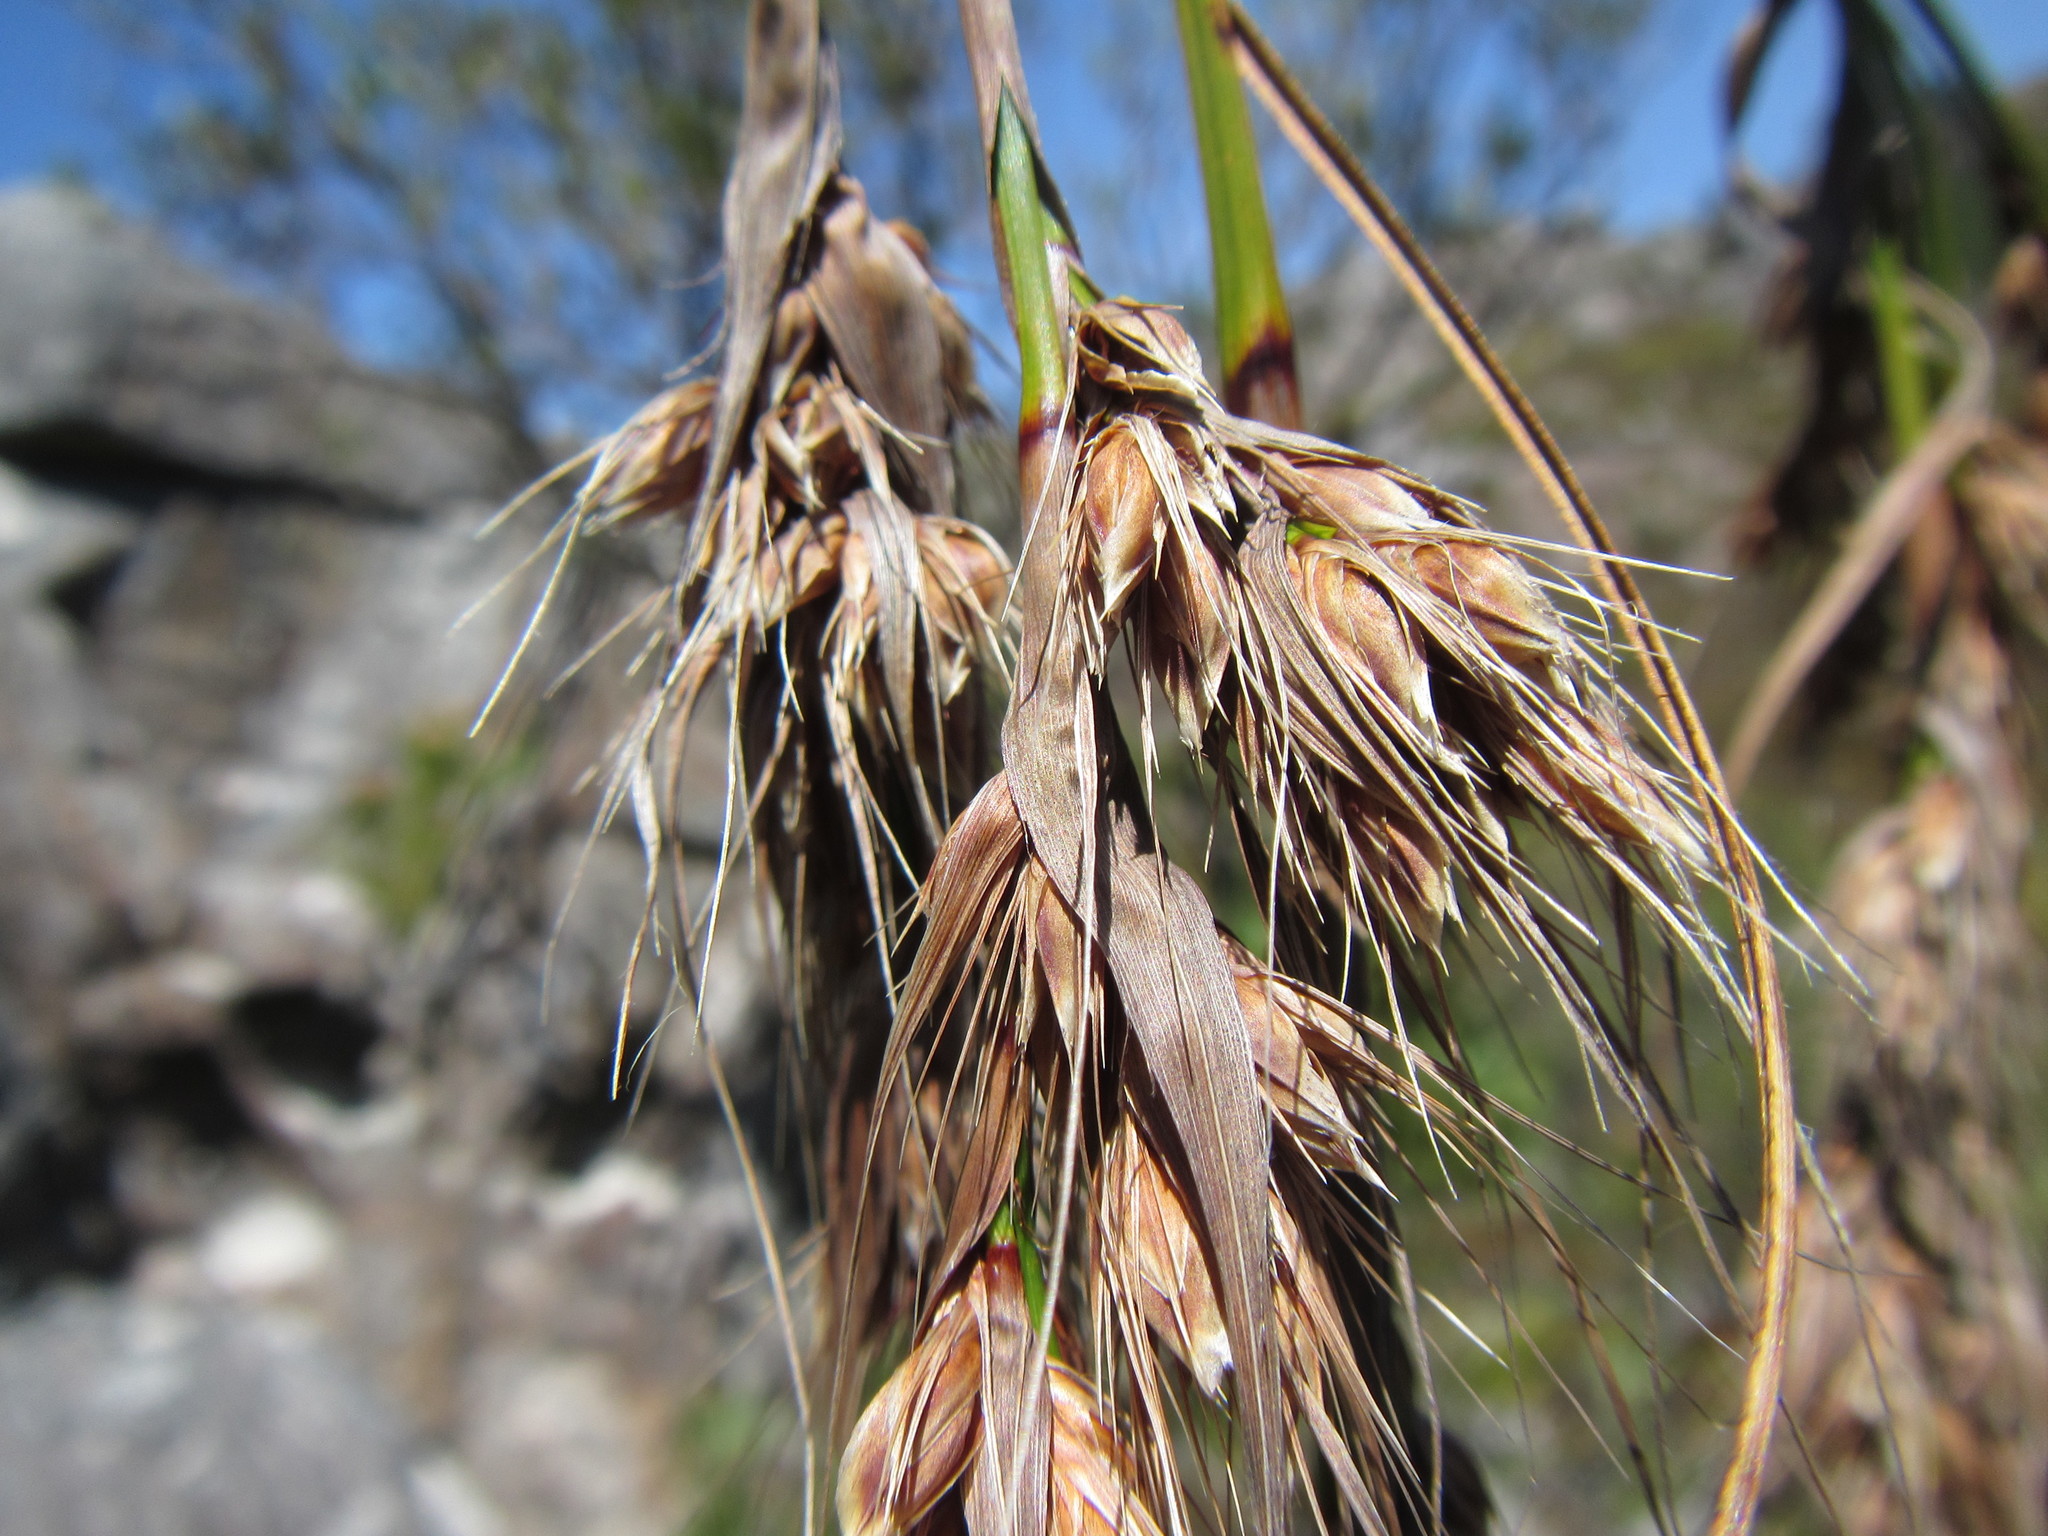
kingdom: Plantae
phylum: Tracheophyta
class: Liliopsida
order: Poales
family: Cyperaceae
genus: Tetraria
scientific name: Tetraria involucrata
